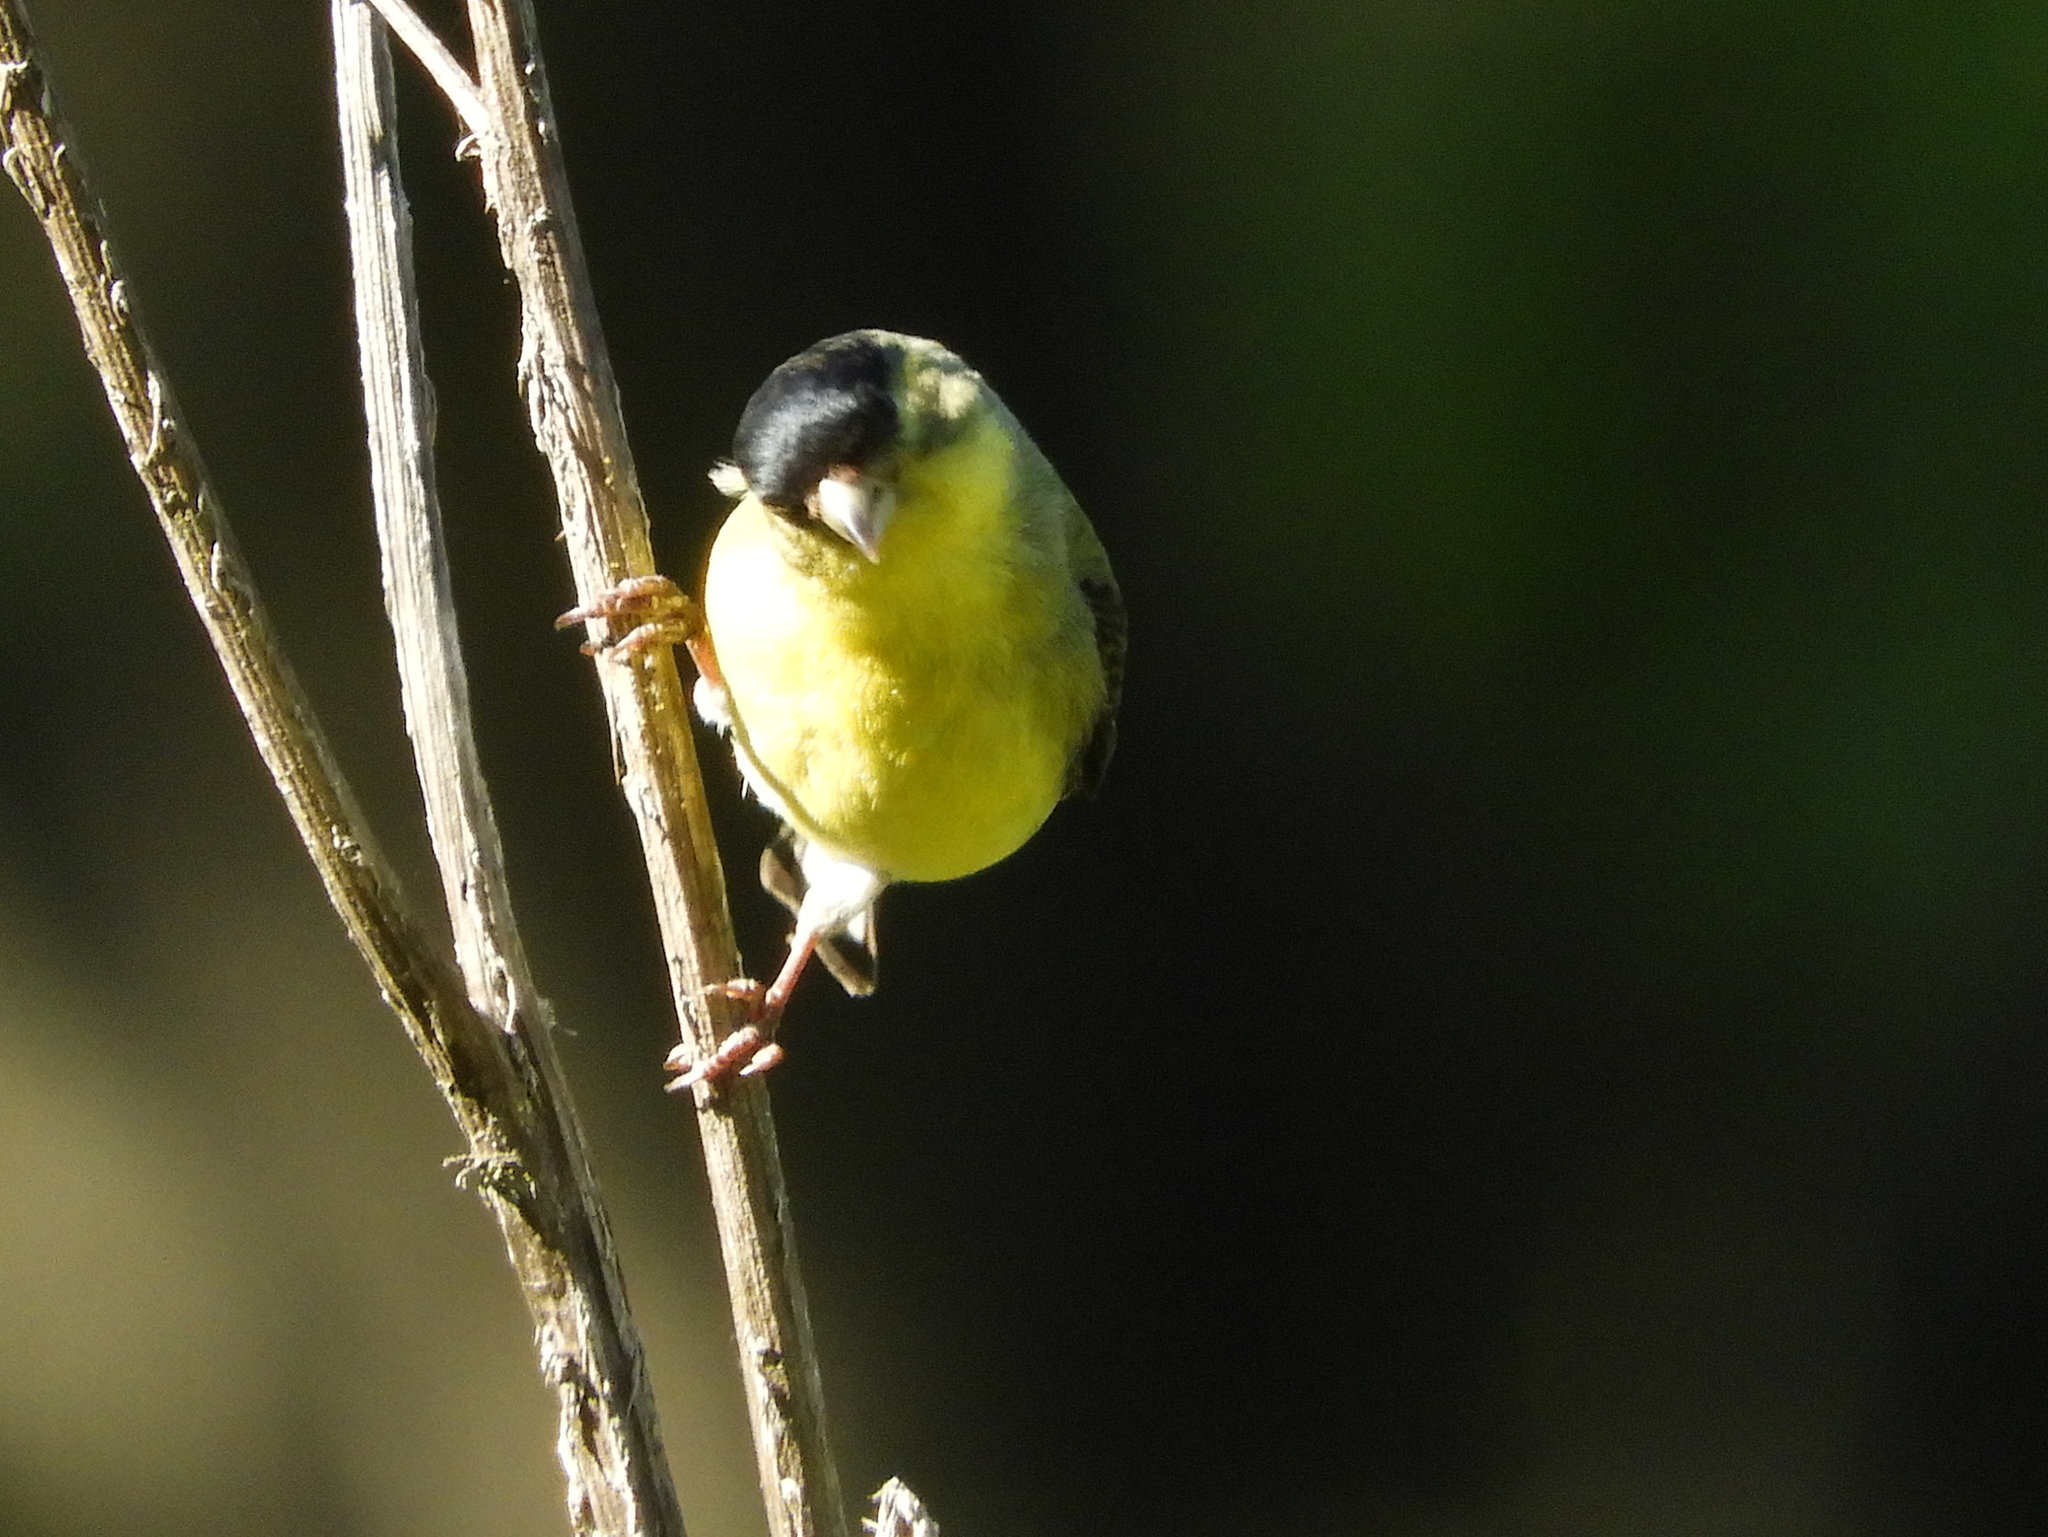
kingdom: Animalia
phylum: Chordata
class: Aves
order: Passeriformes
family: Fringillidae
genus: Spinus
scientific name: Spinus psaltria
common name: Lesser goldfinch
